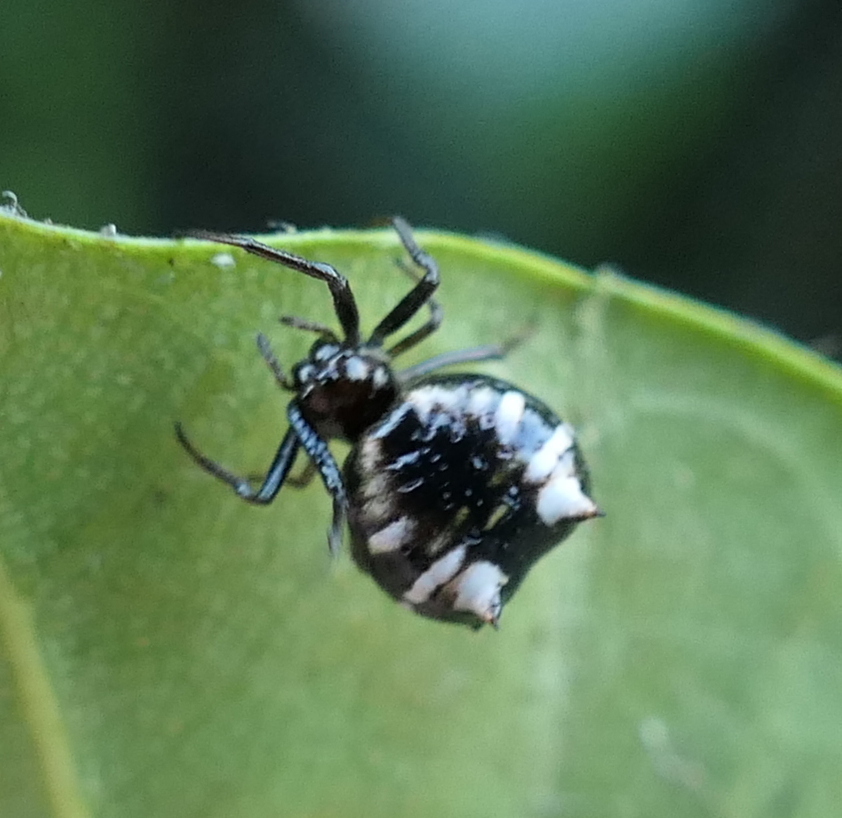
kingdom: Animalia
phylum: Arthropoda
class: Arachnida
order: Araneae
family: Araneidae
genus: Micrathena
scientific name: Micrathena patruelis
